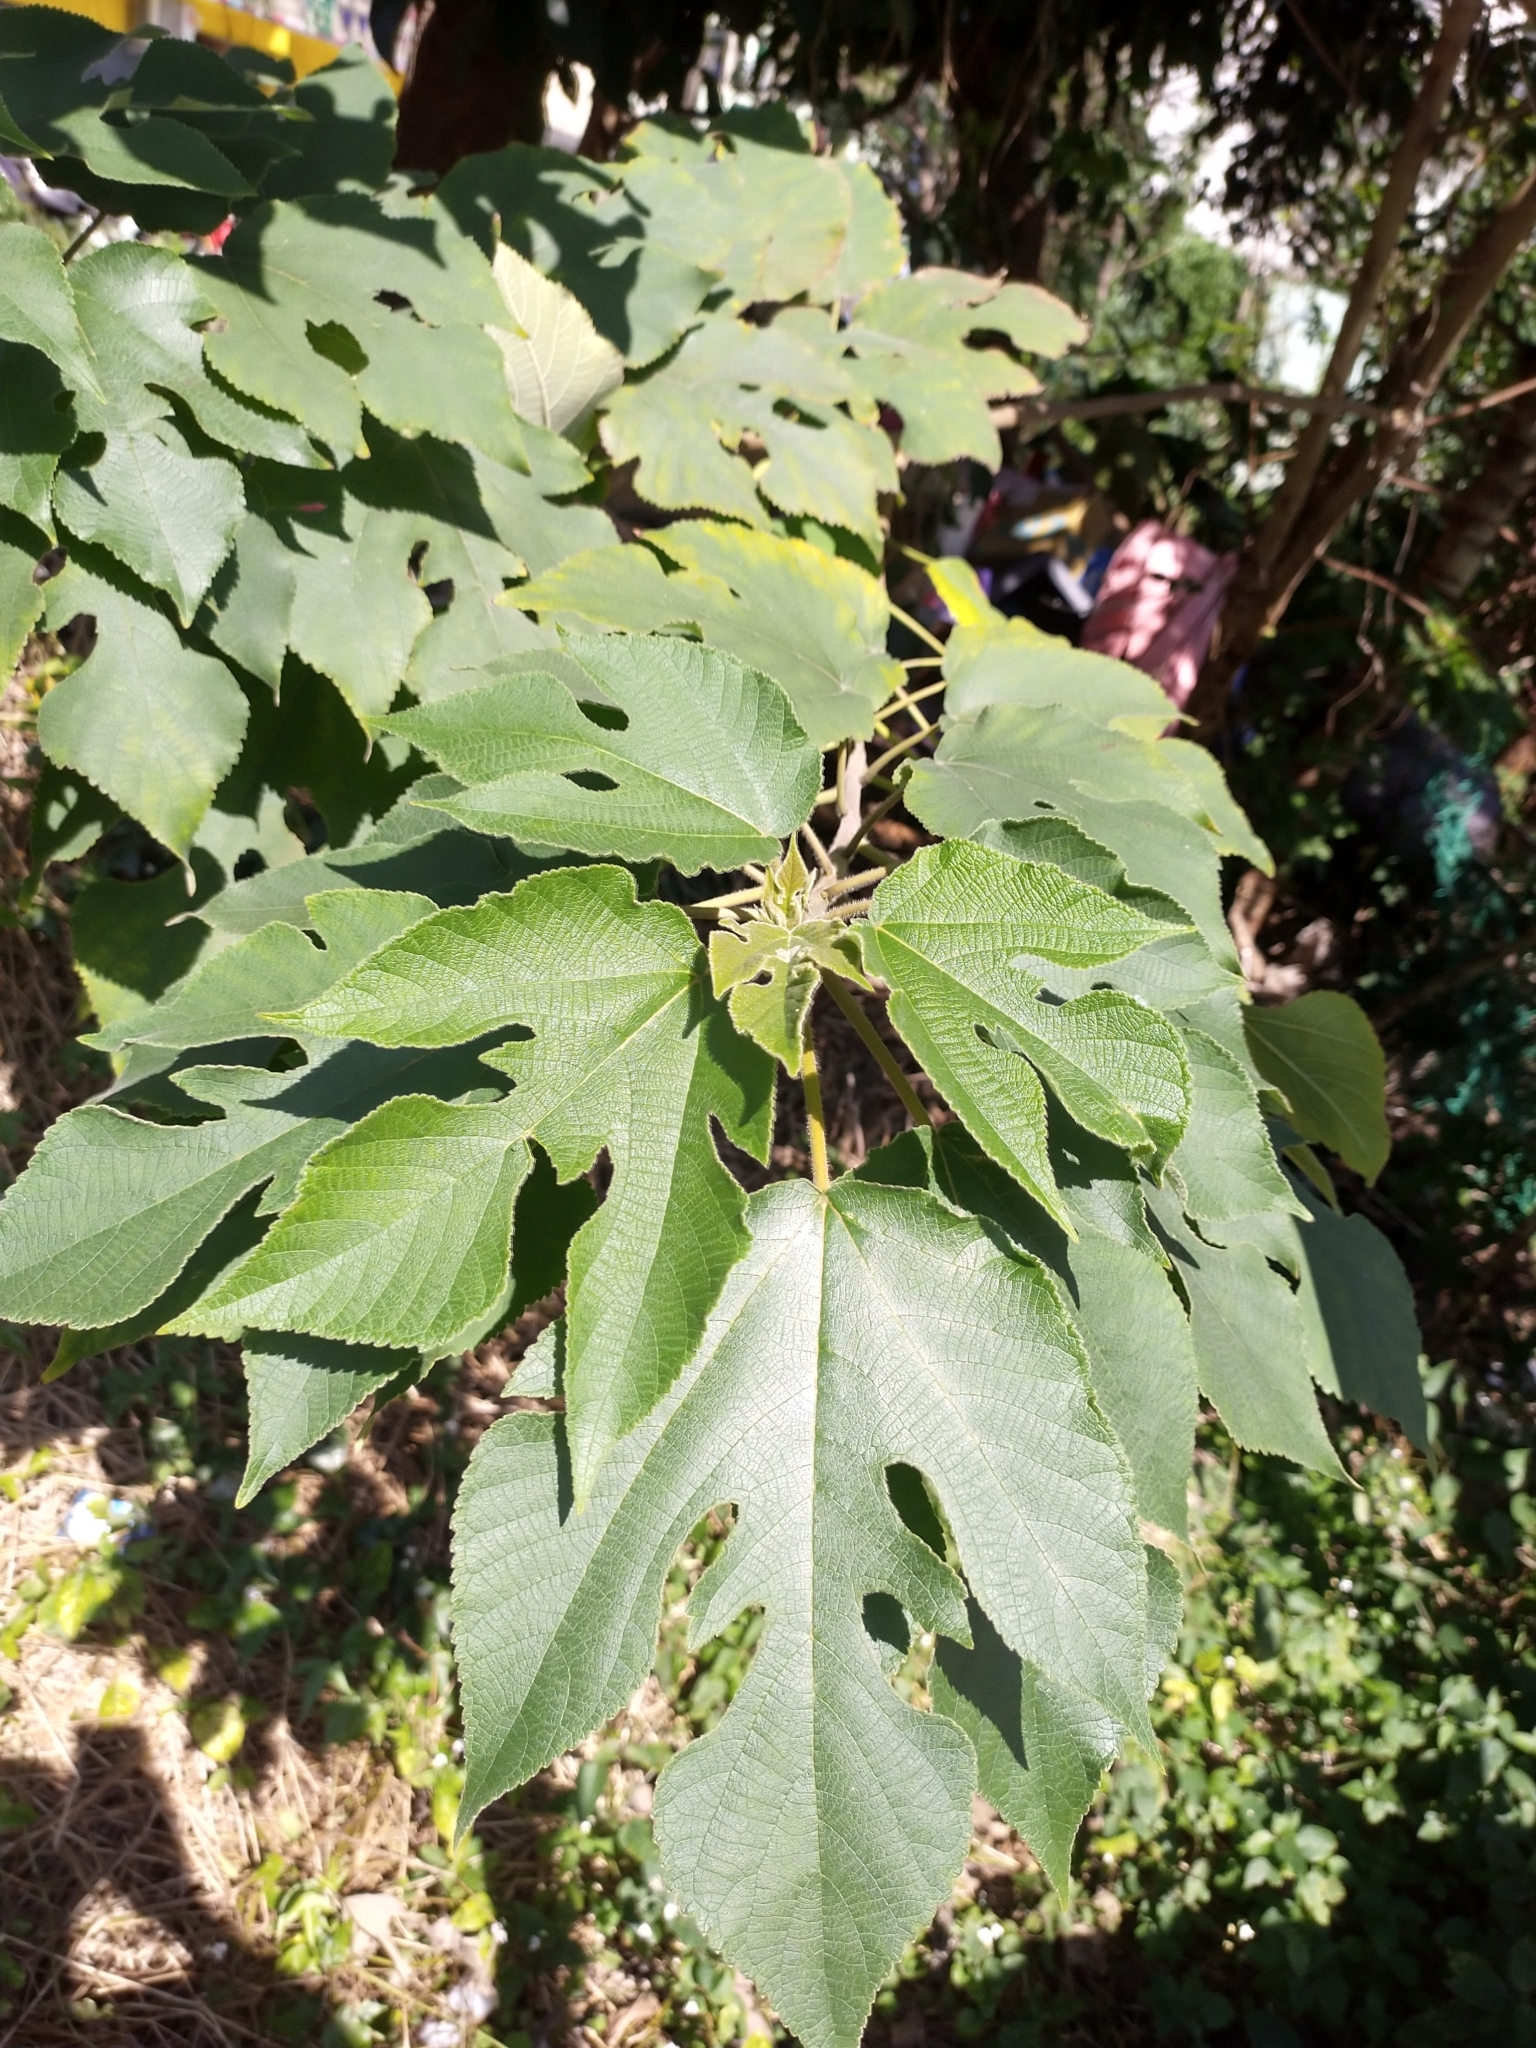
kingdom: Plantae
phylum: Tracheophyta
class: Magnoliopsida
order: Rosales
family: Moraceae
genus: Broussonetia
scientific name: Broussonetia papyrifera
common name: Paper mulberry
